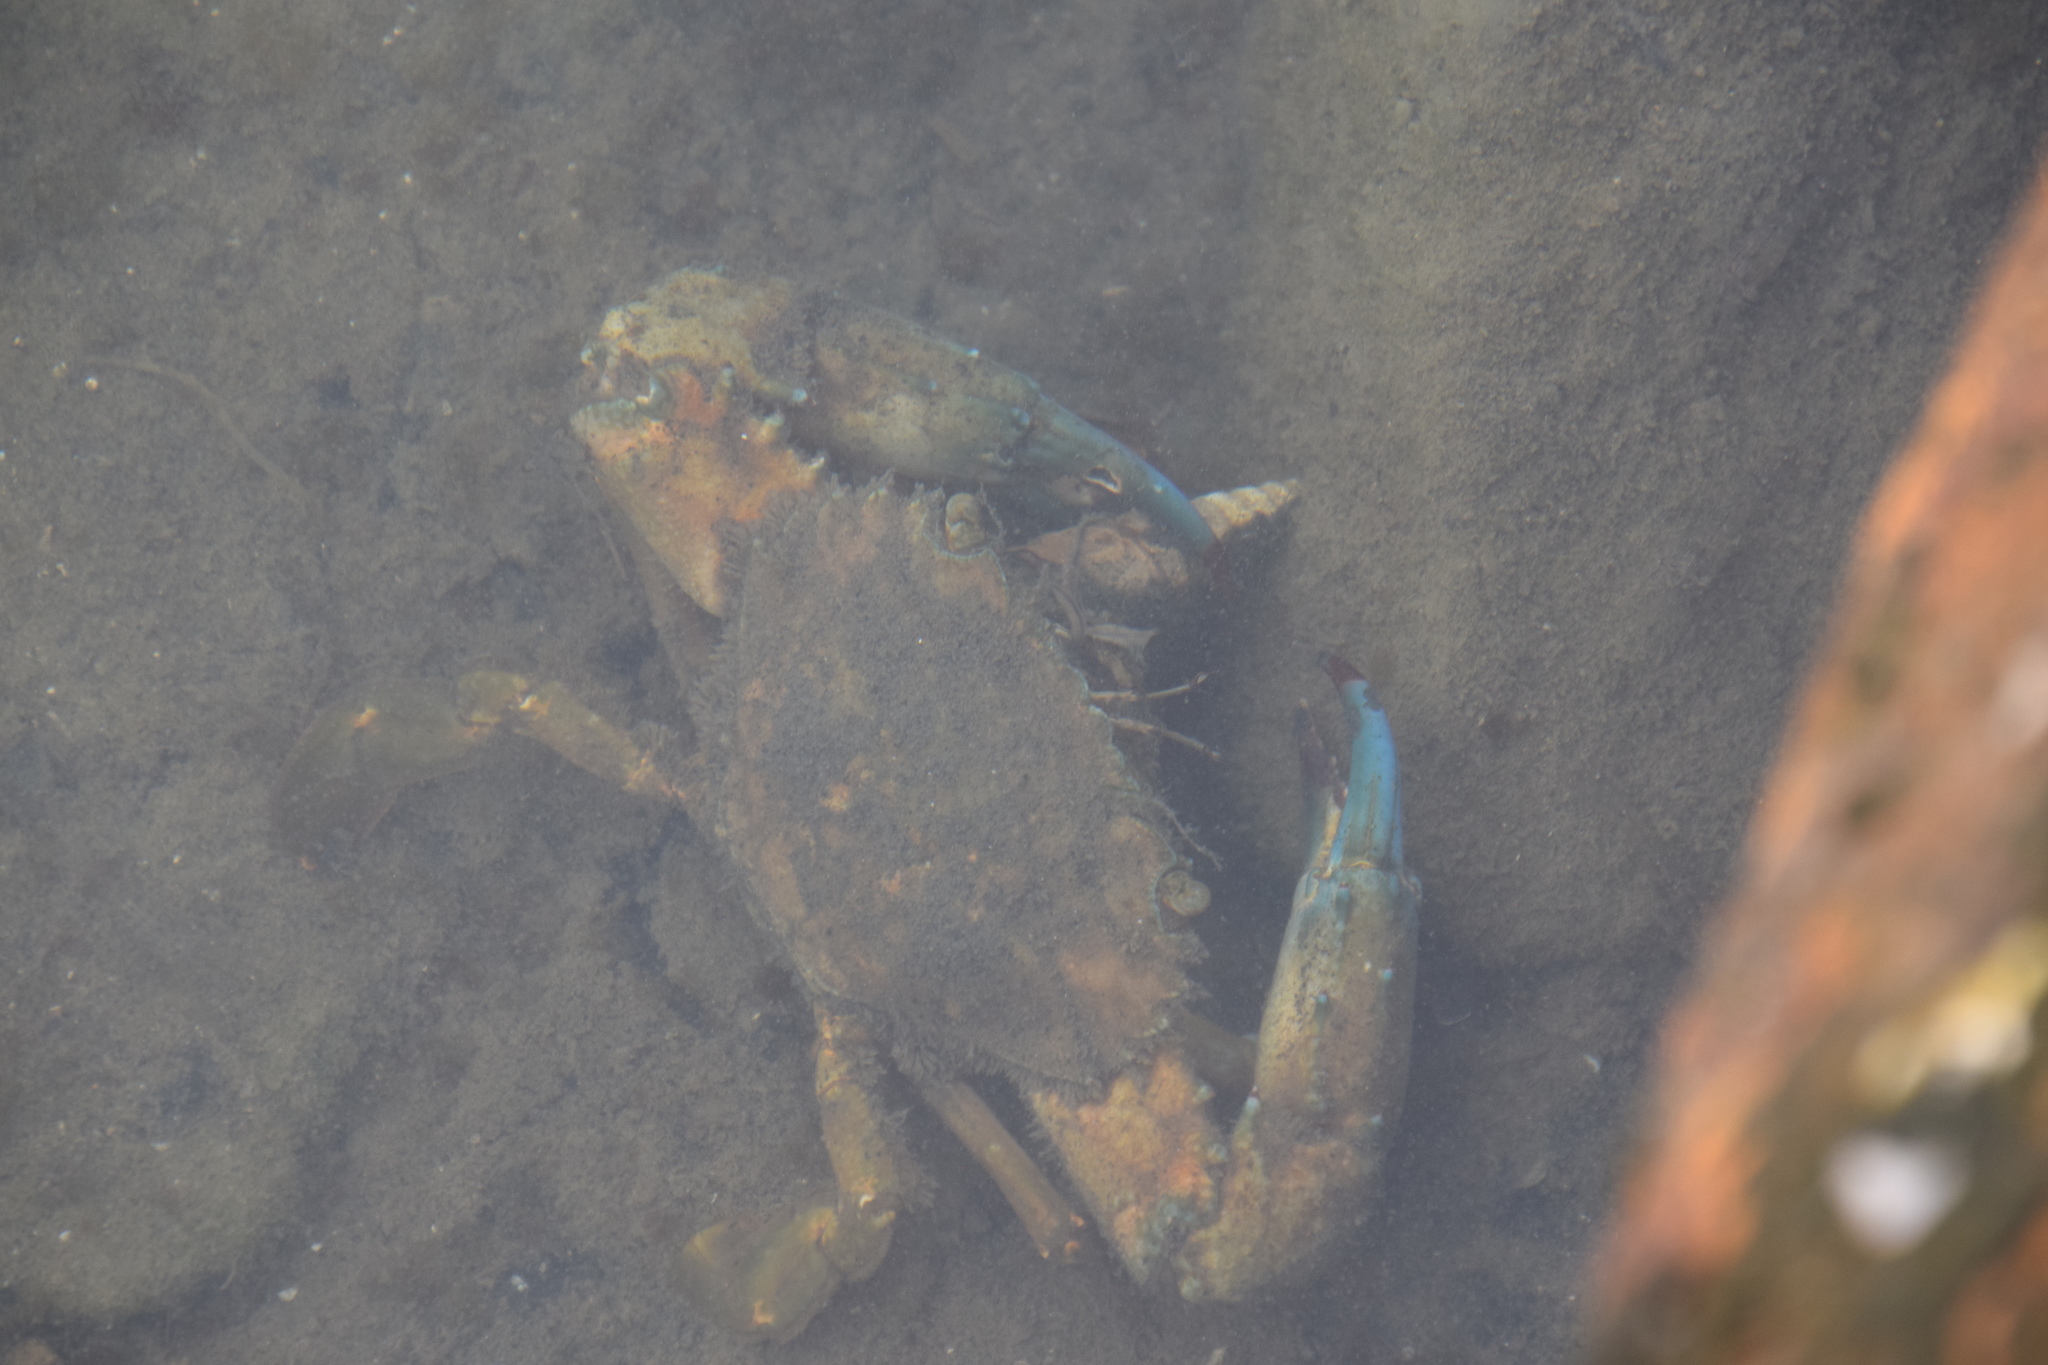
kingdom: Animalia
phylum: Mollusca
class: Gastropoda
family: Batillariidae
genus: Batillaria
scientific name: Batillaria australis
